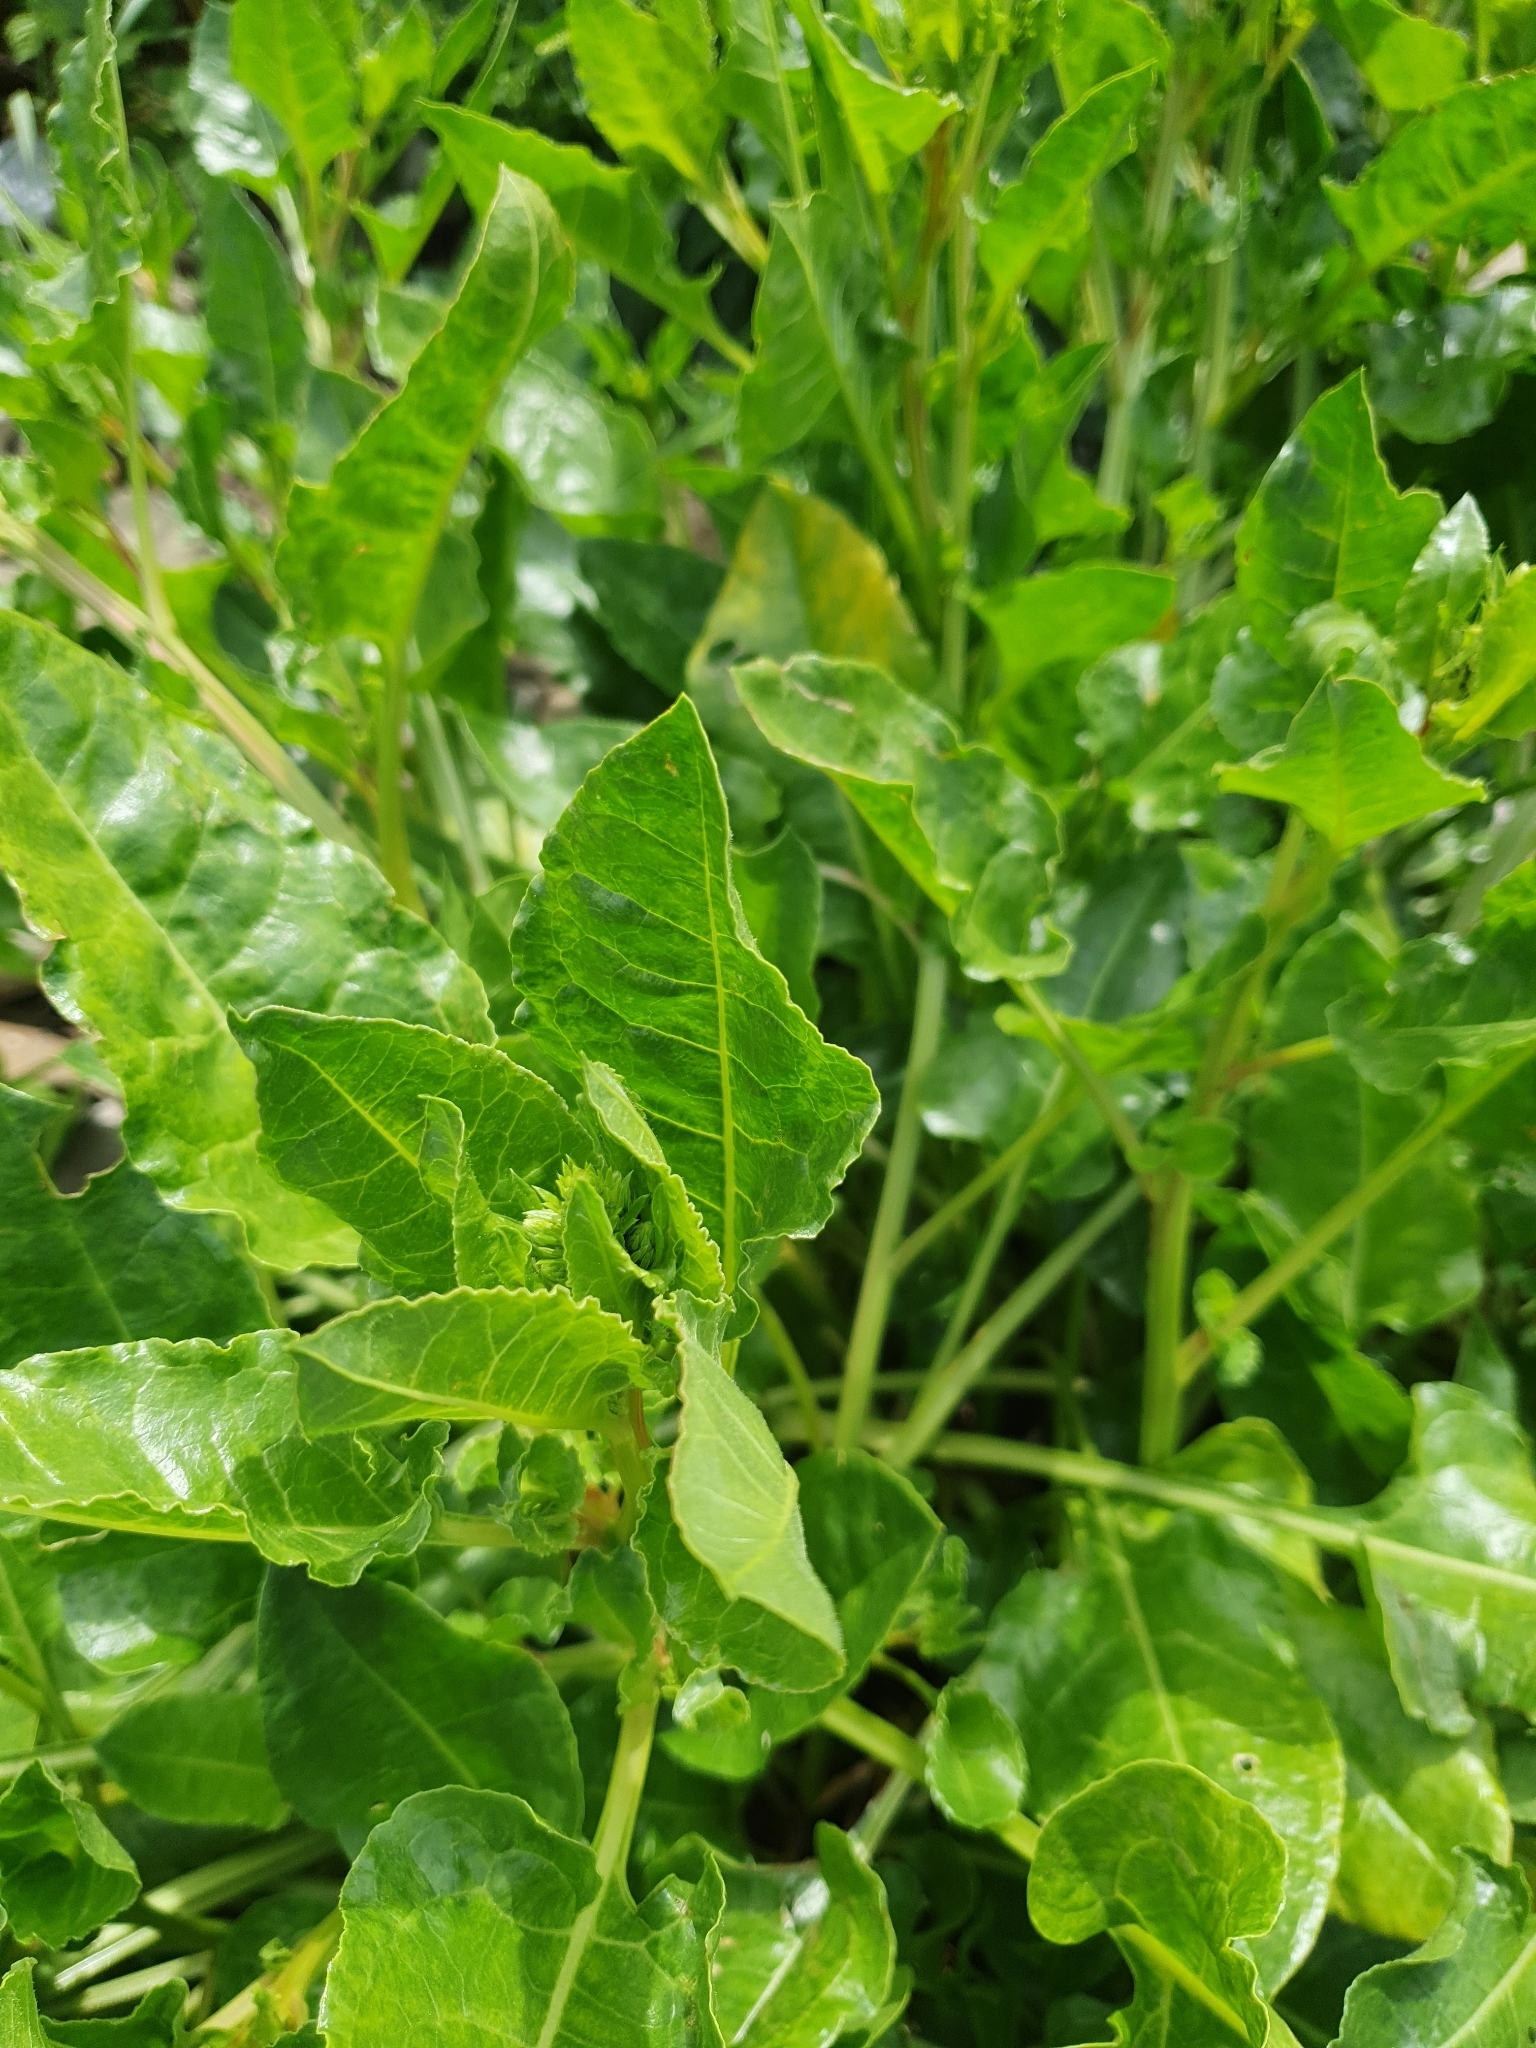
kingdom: Plantae
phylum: Tracheophyta
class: Magnoliopsida
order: Caryophyllales
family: Amaranthaceae
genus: Beta
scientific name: Beta vulgaris
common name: Beet
